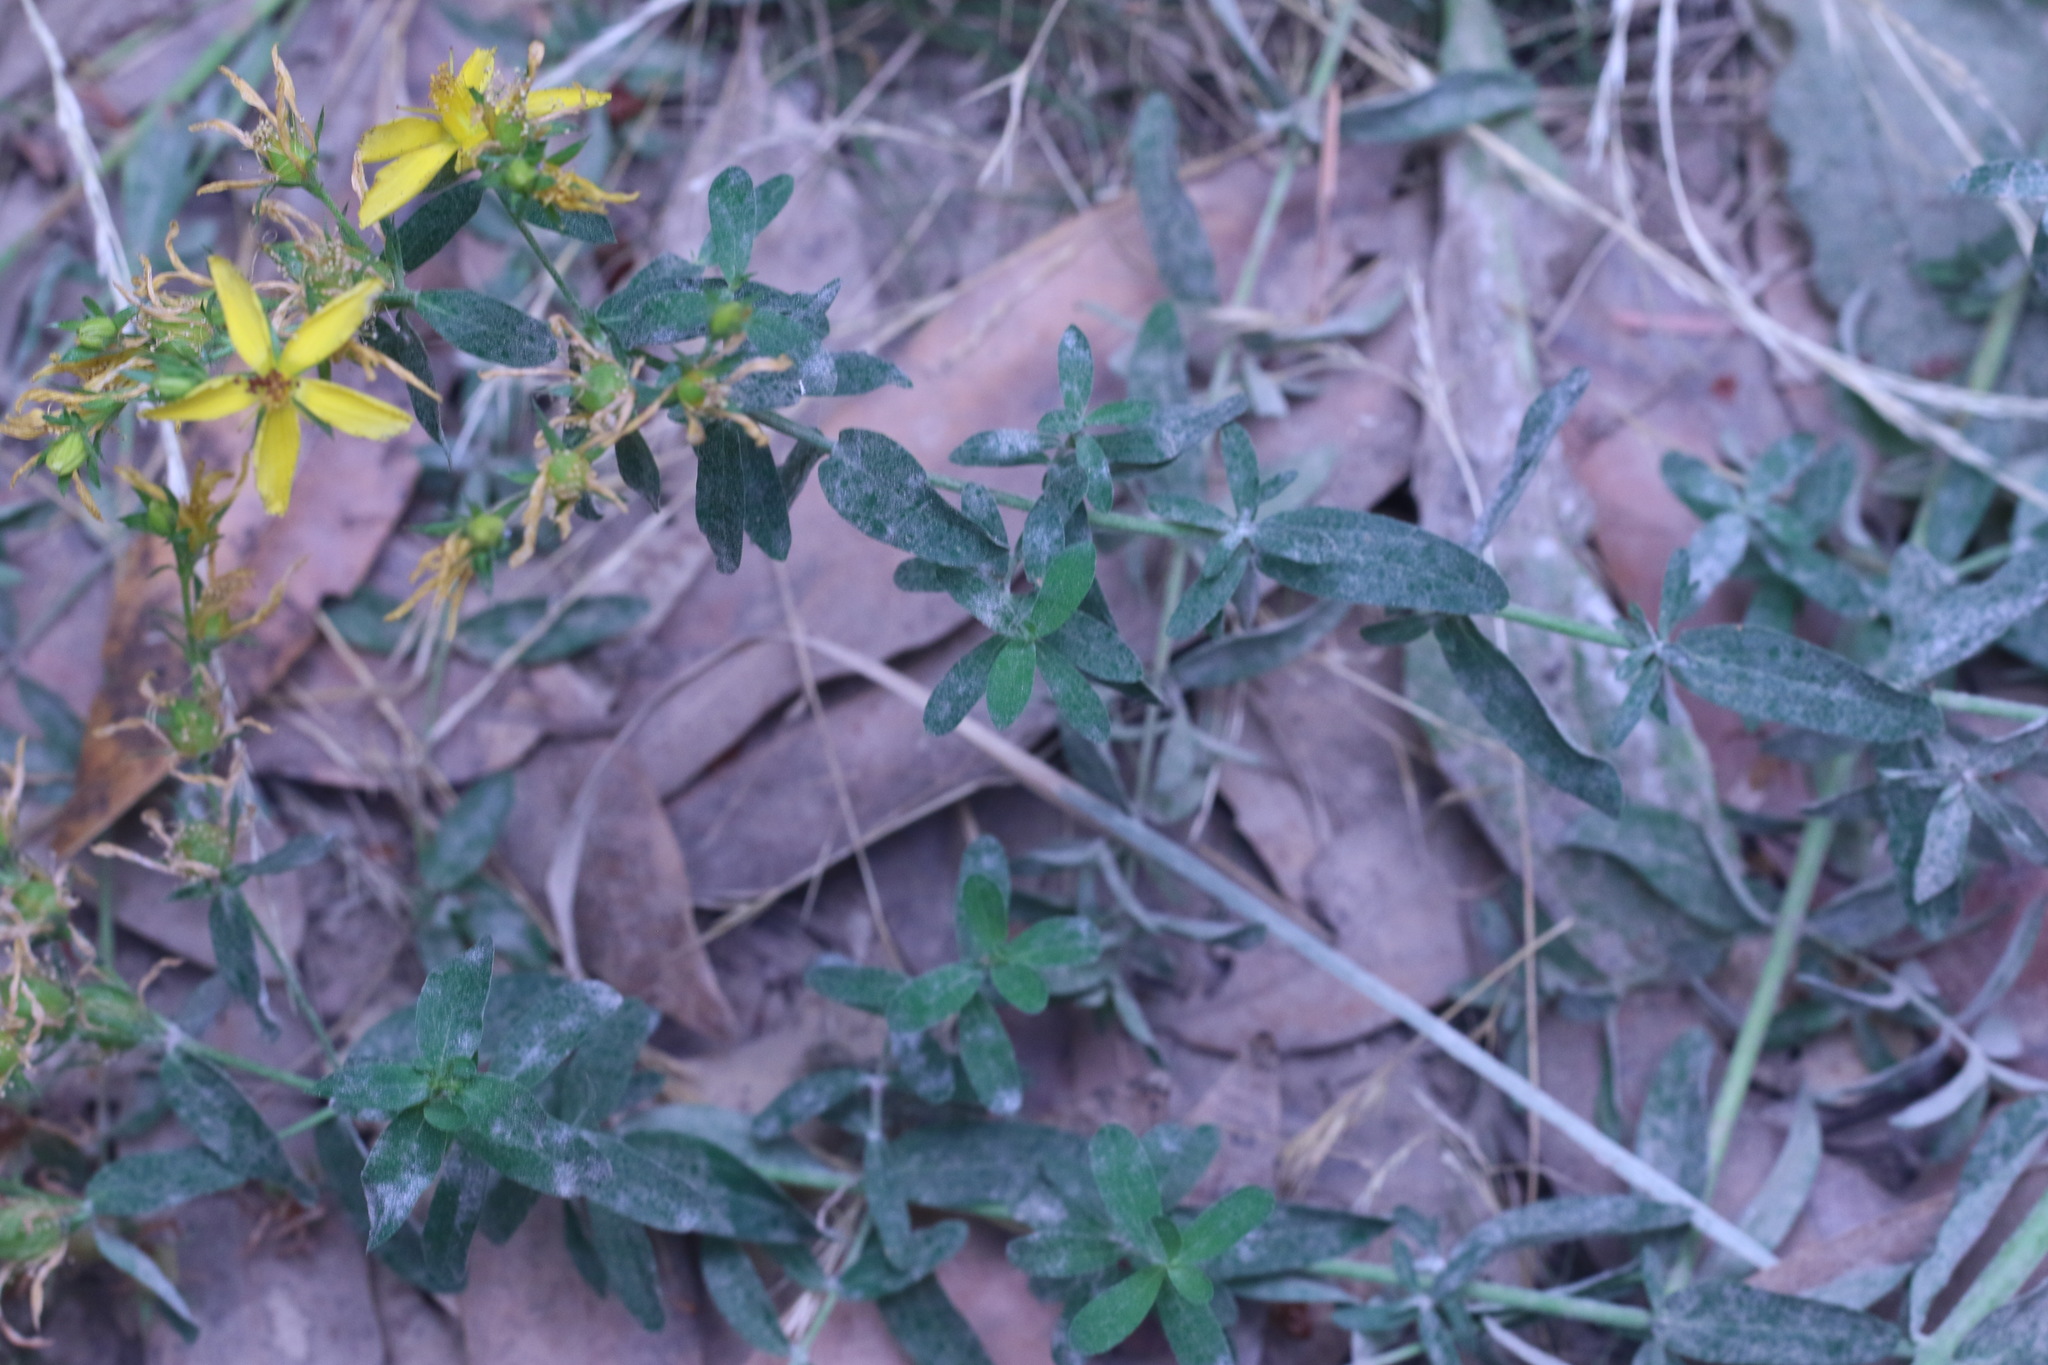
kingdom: Plantae
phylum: Tracheophyta
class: Magnoliopsida
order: Malpighiales
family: Hypericaceae
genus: Hypericum
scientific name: Hypericum perforatum
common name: Common st. johnswort
